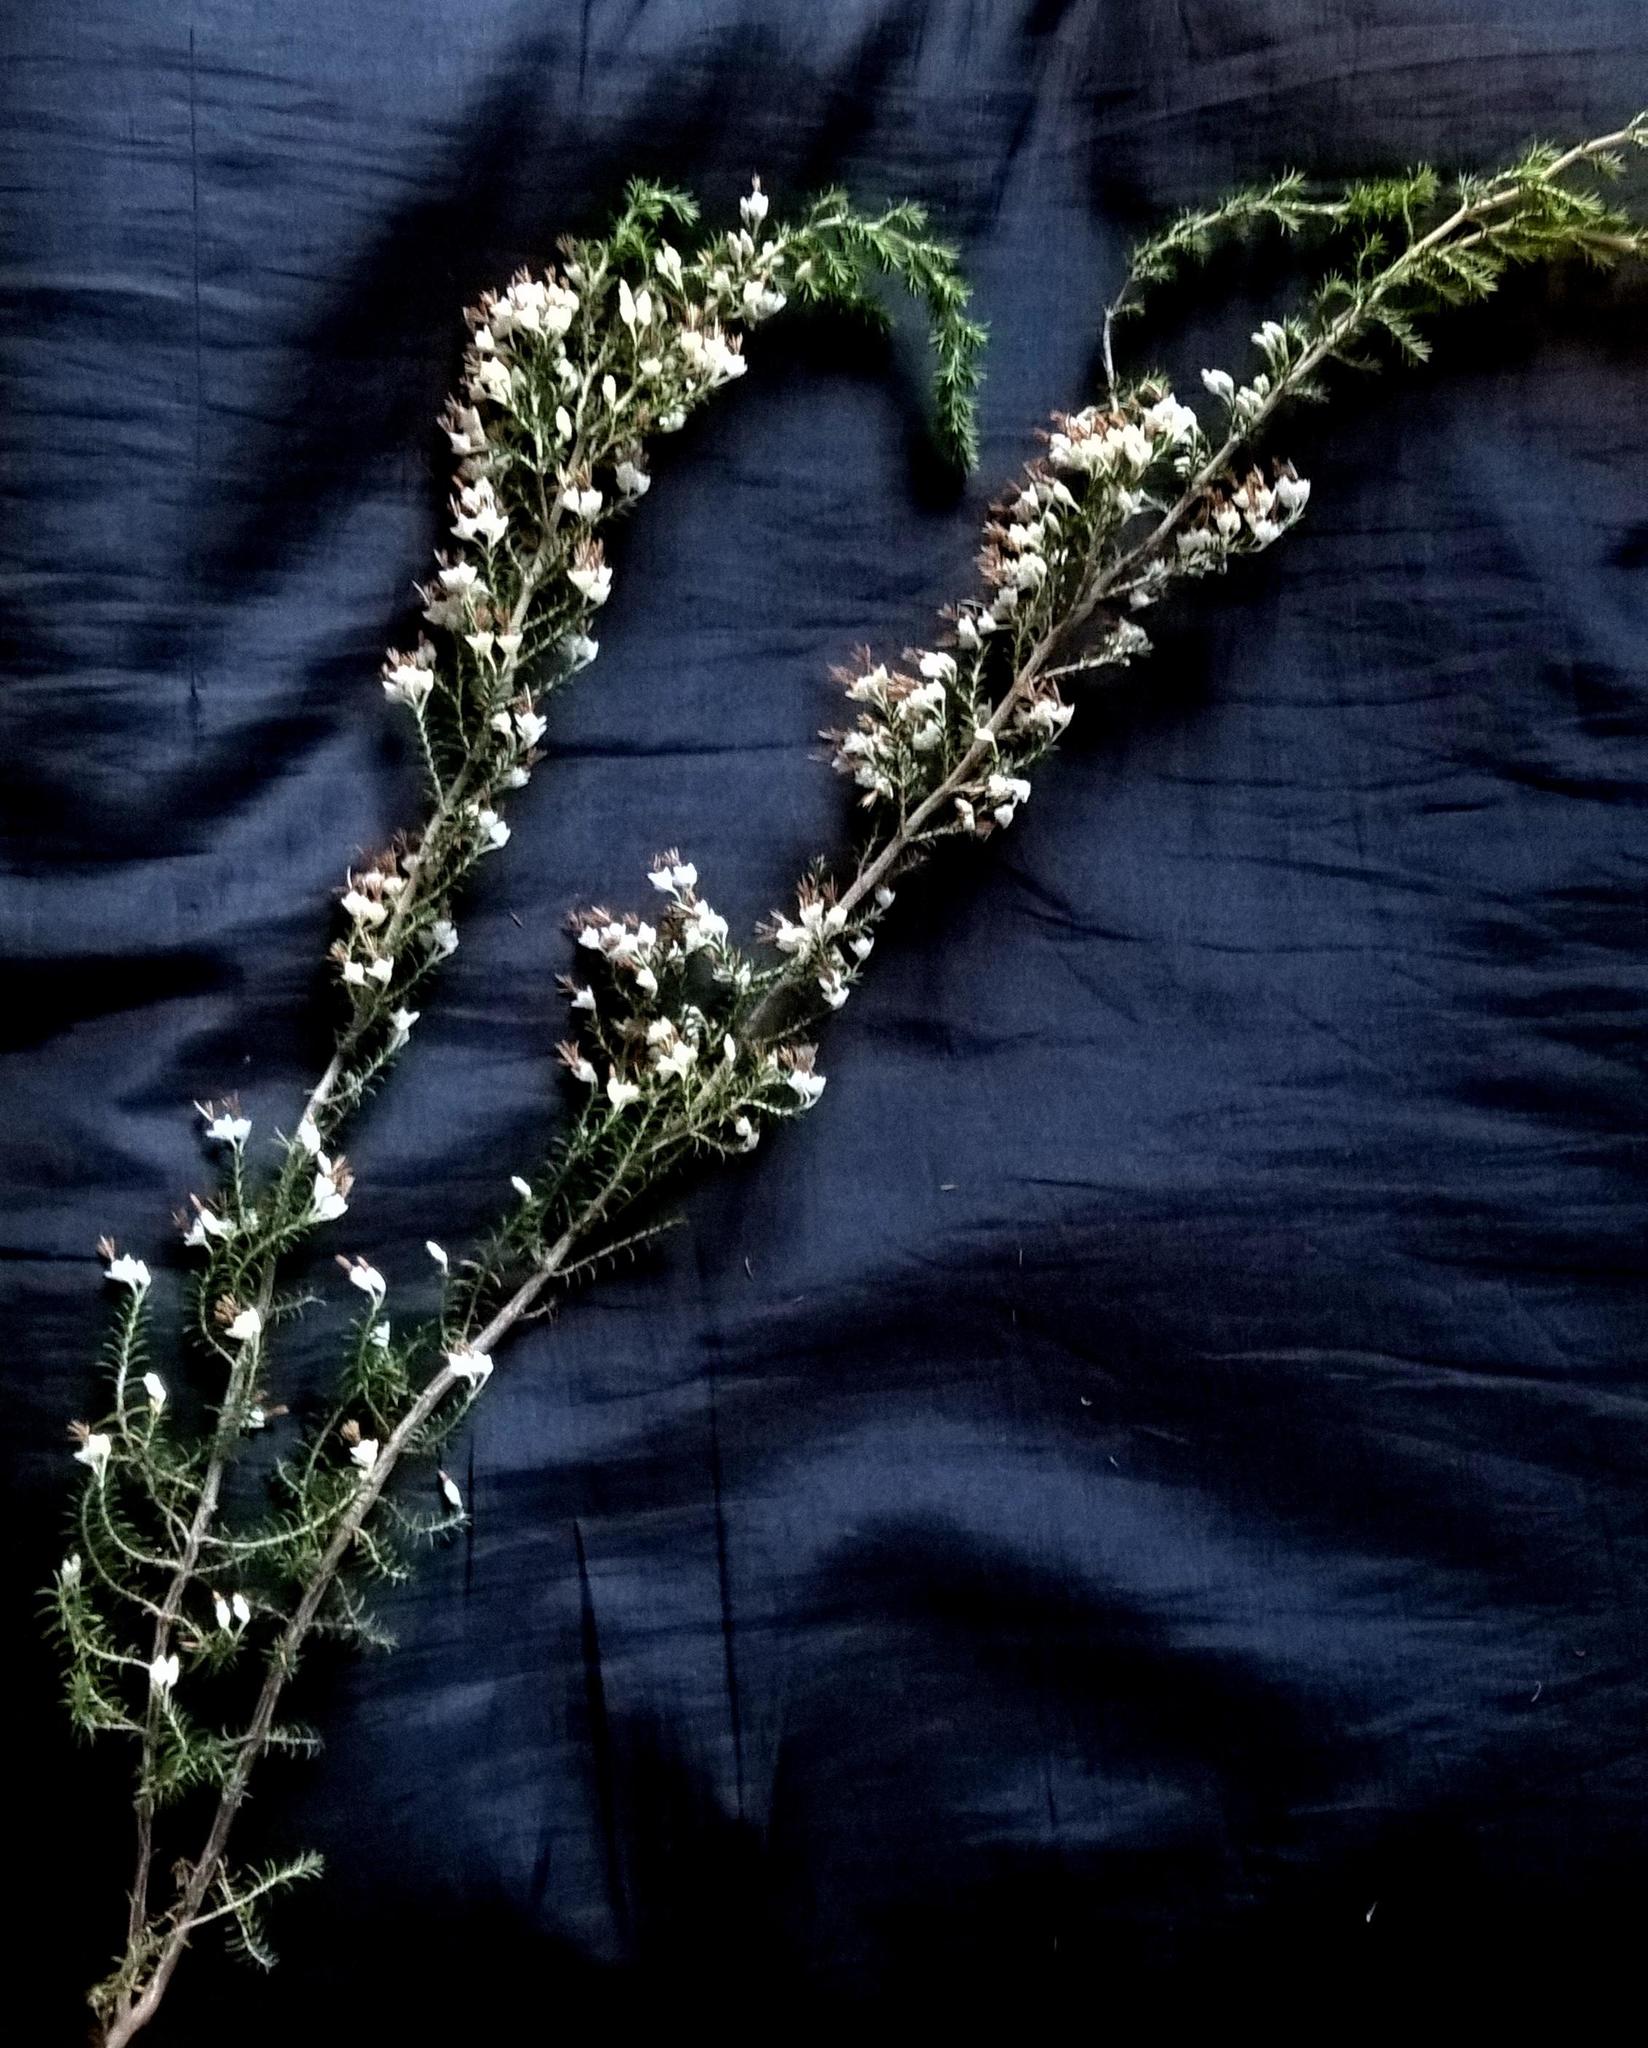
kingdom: Plantae
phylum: Tracheophyta
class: Magnoliopsida
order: Ericales
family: Ericaceae
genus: Erica
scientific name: Erica penicilliformis
